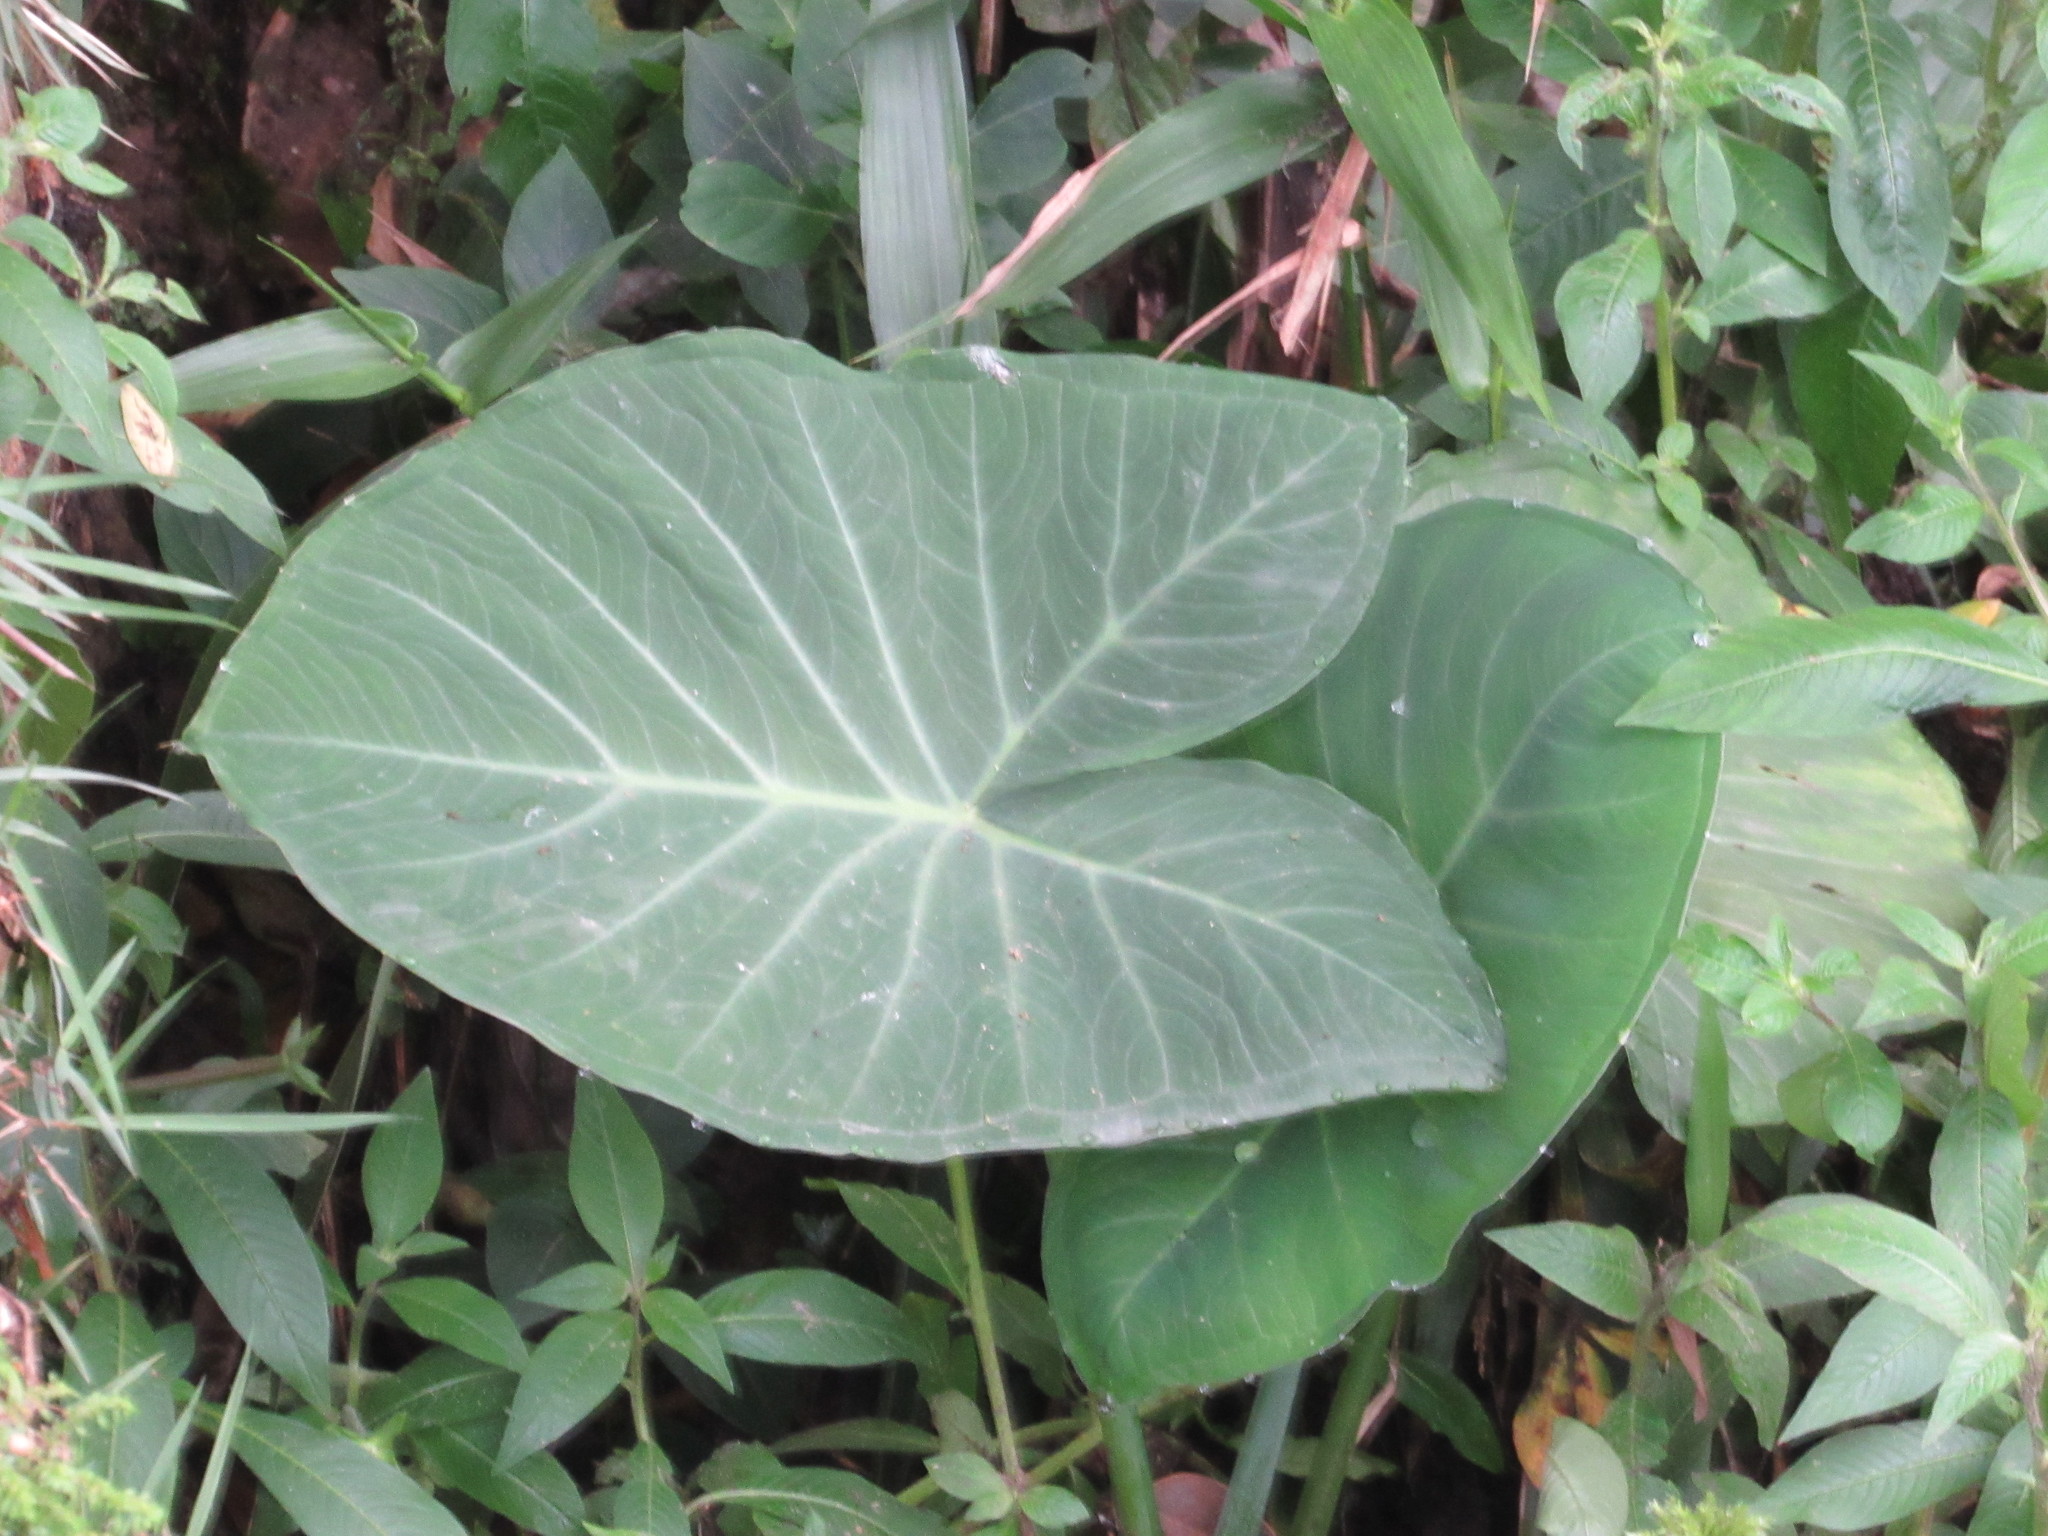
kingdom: Plantae
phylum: Tracheophyta
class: Liliopsida
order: Alismatales
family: Araceae
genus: Xanthosoma
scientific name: Xanthosoma taioba
